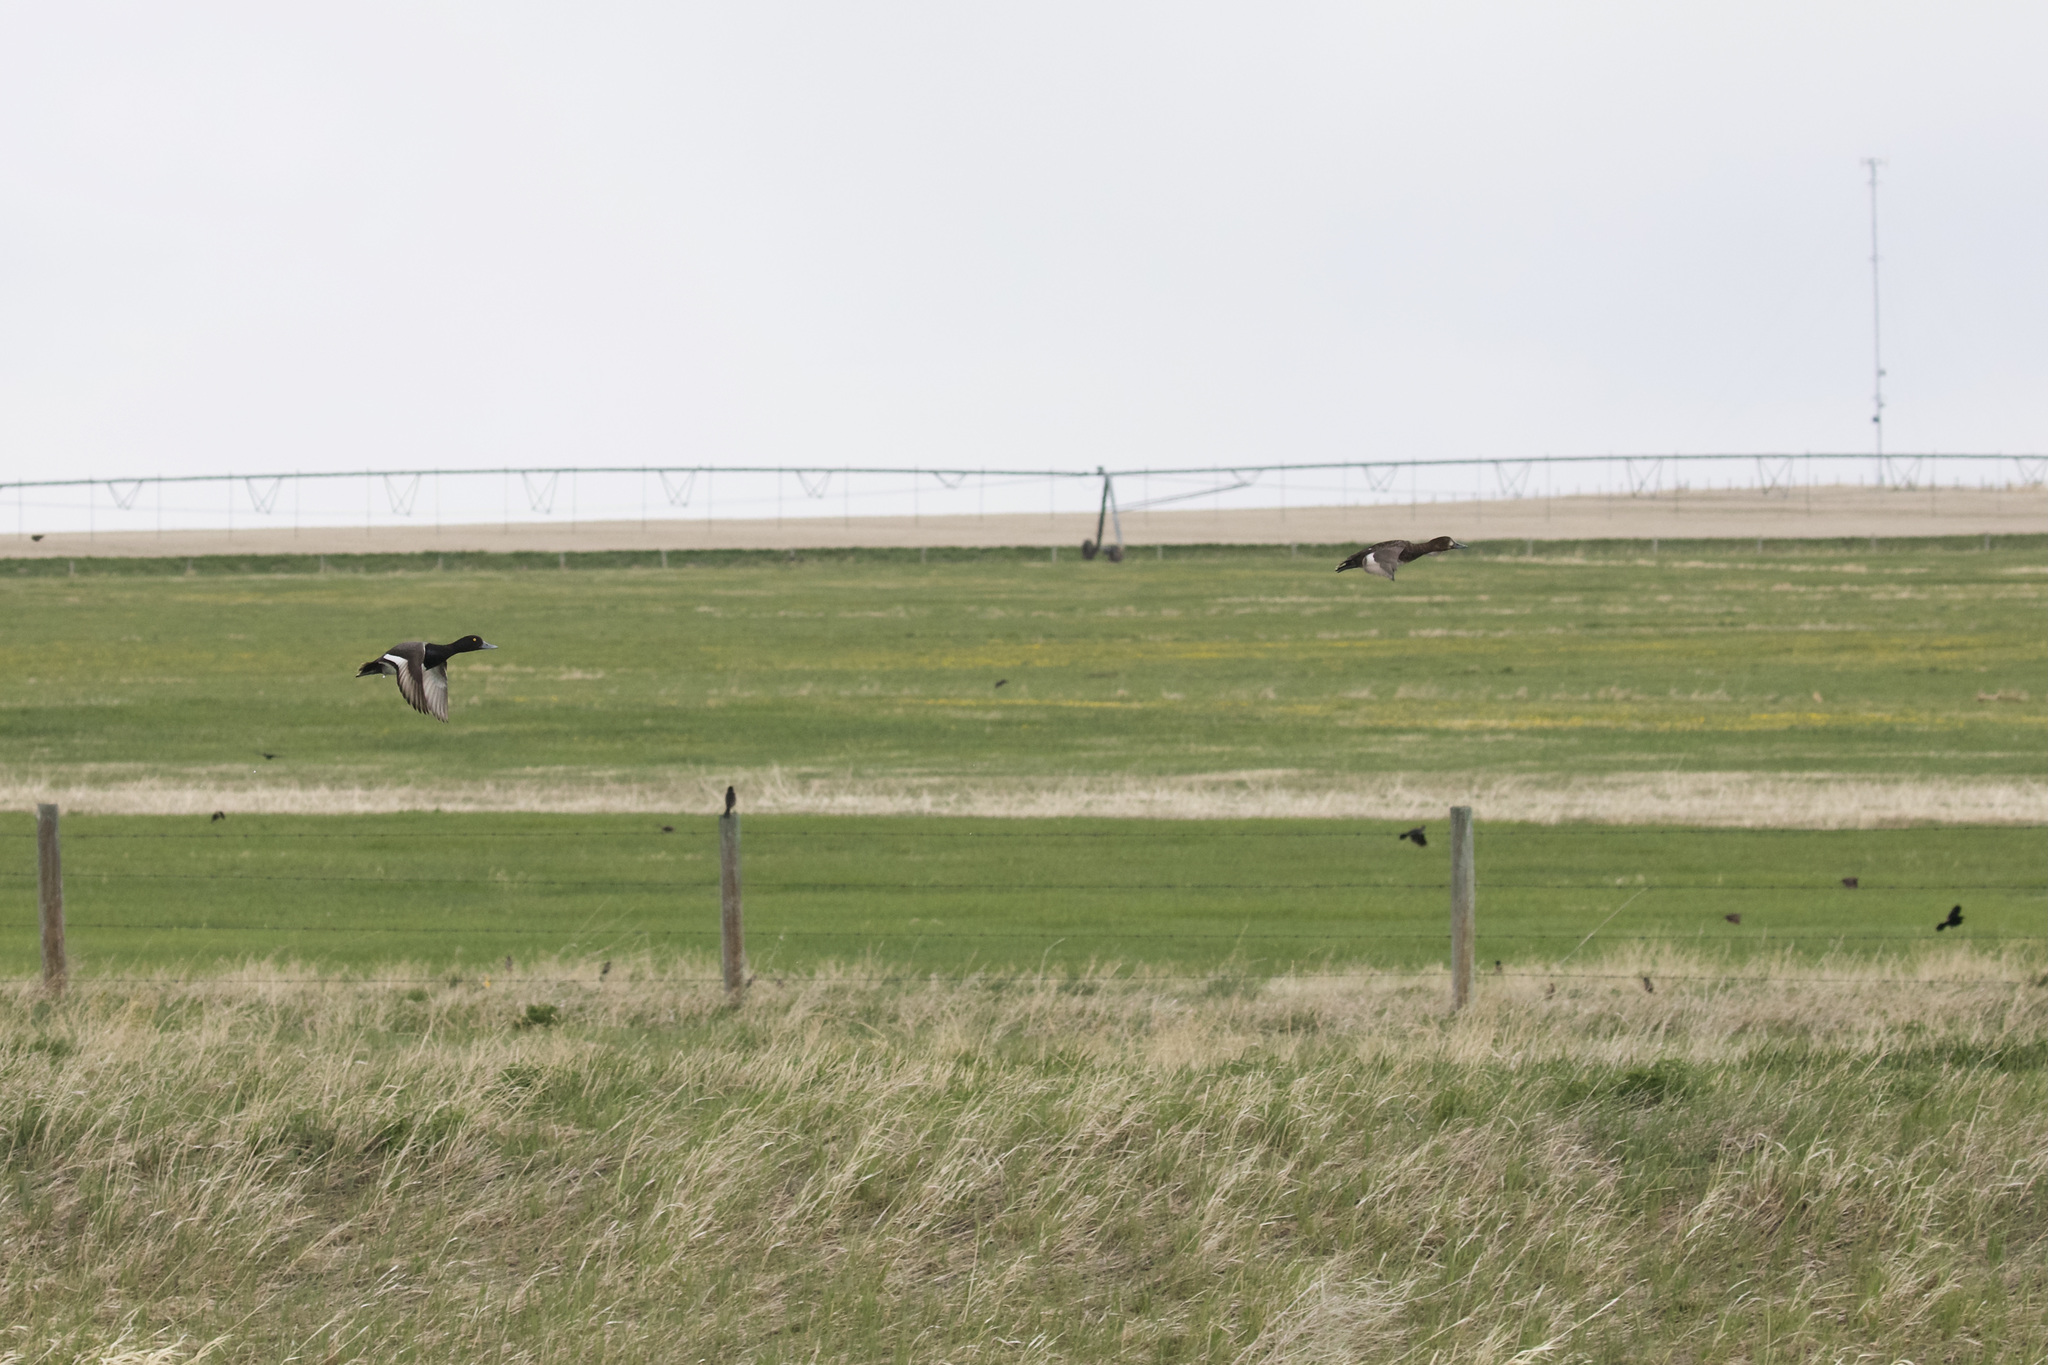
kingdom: Animalia
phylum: Chordata
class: Aves
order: Anseriformes
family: Anatidae
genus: Aythya
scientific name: Aythya affinis
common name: Lesser scaup
